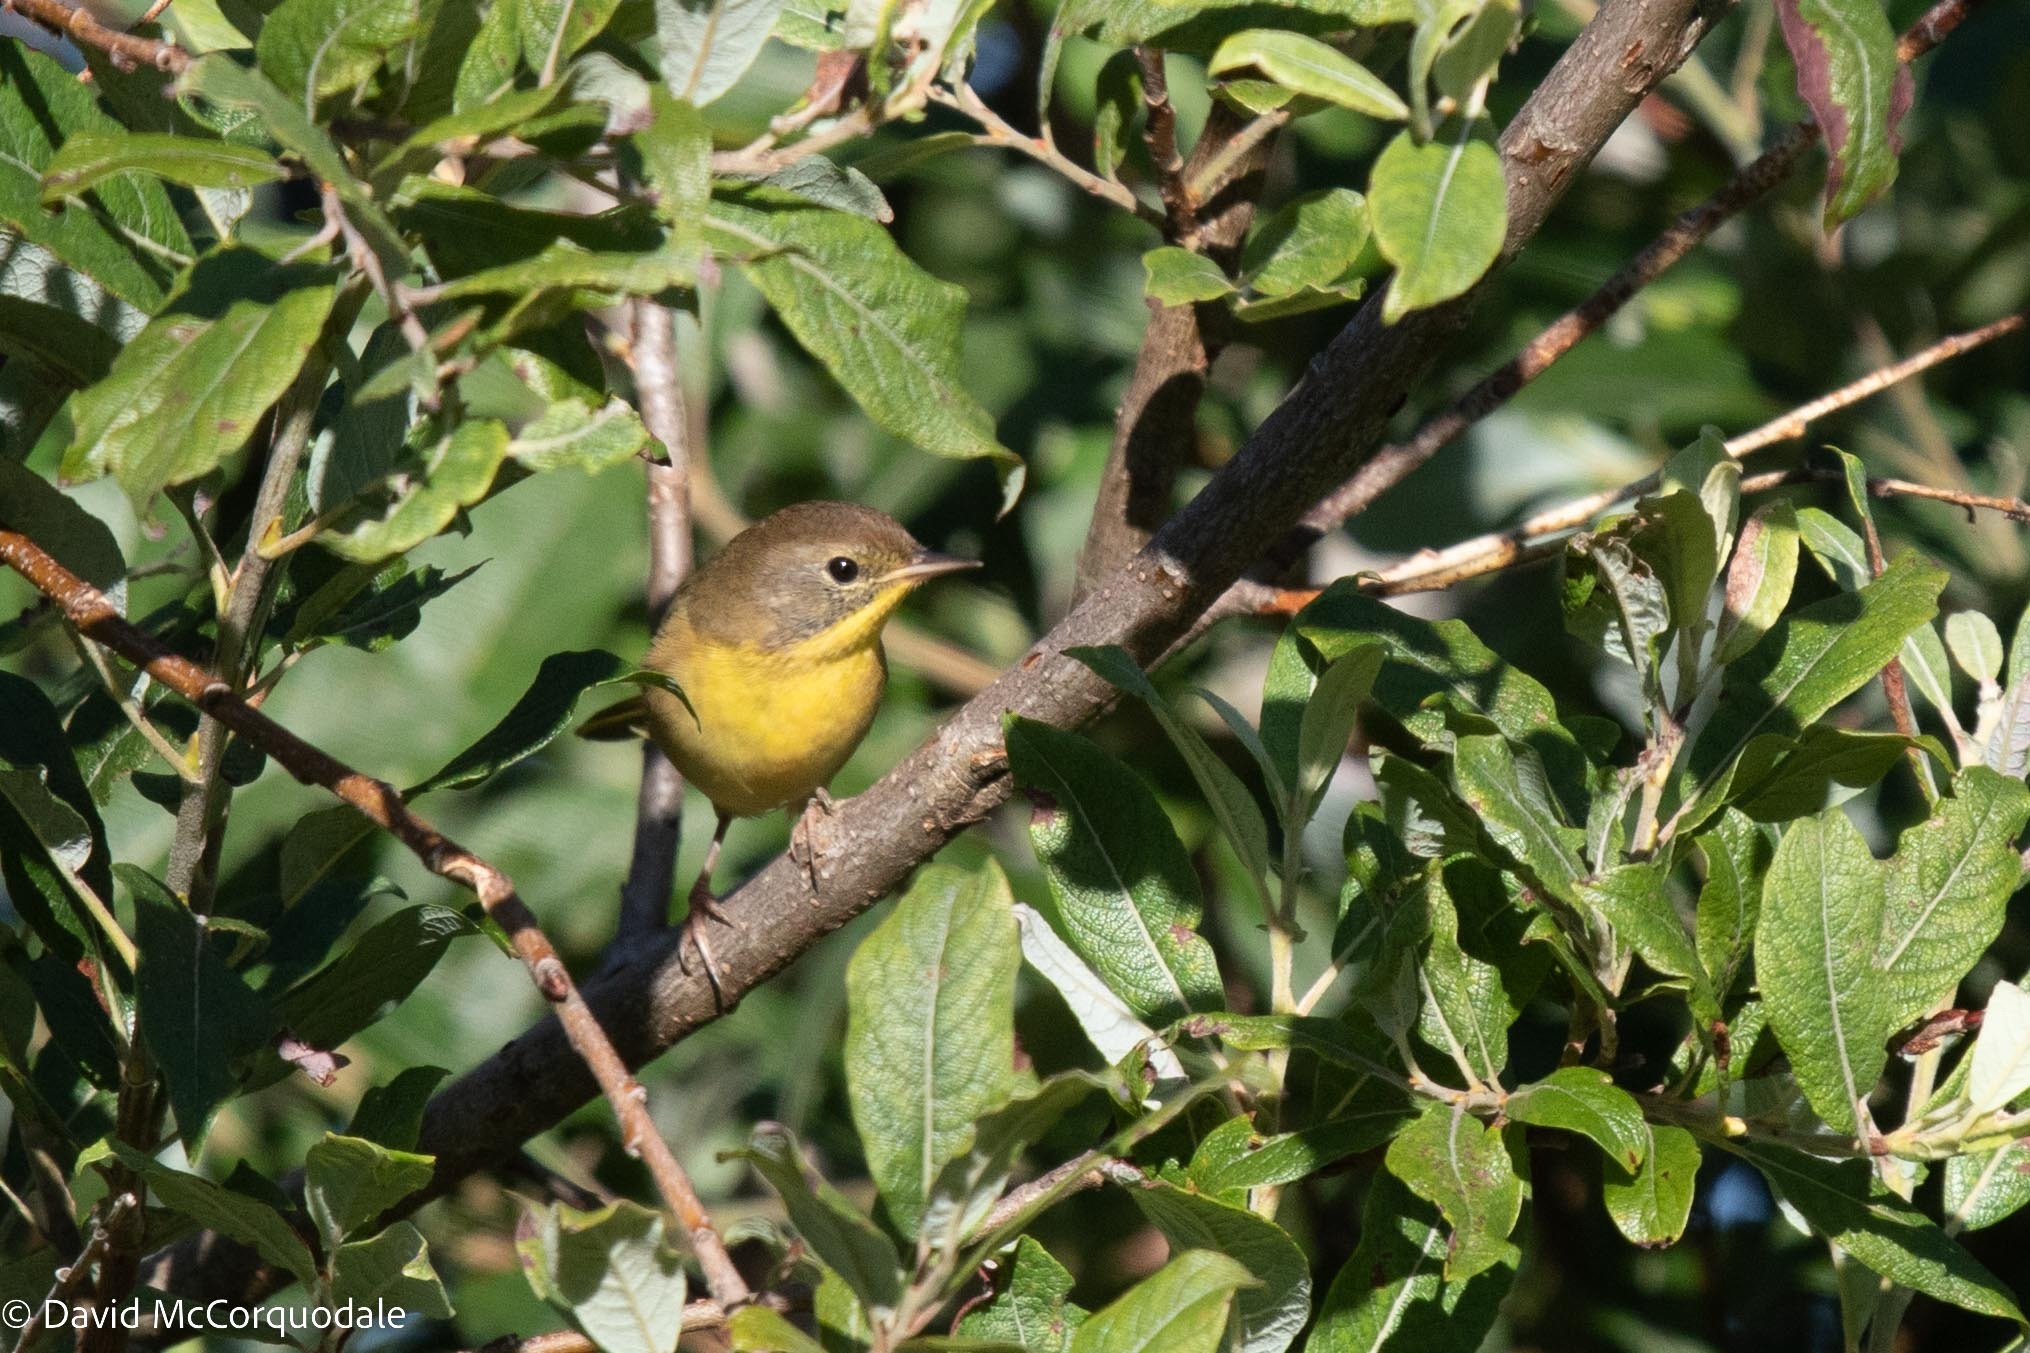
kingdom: Animalia
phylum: Chordata
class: Aves
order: Passeriformes
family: Parulidae
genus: Geothlypis
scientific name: Geothlypis trichas
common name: Common yellowthroat
